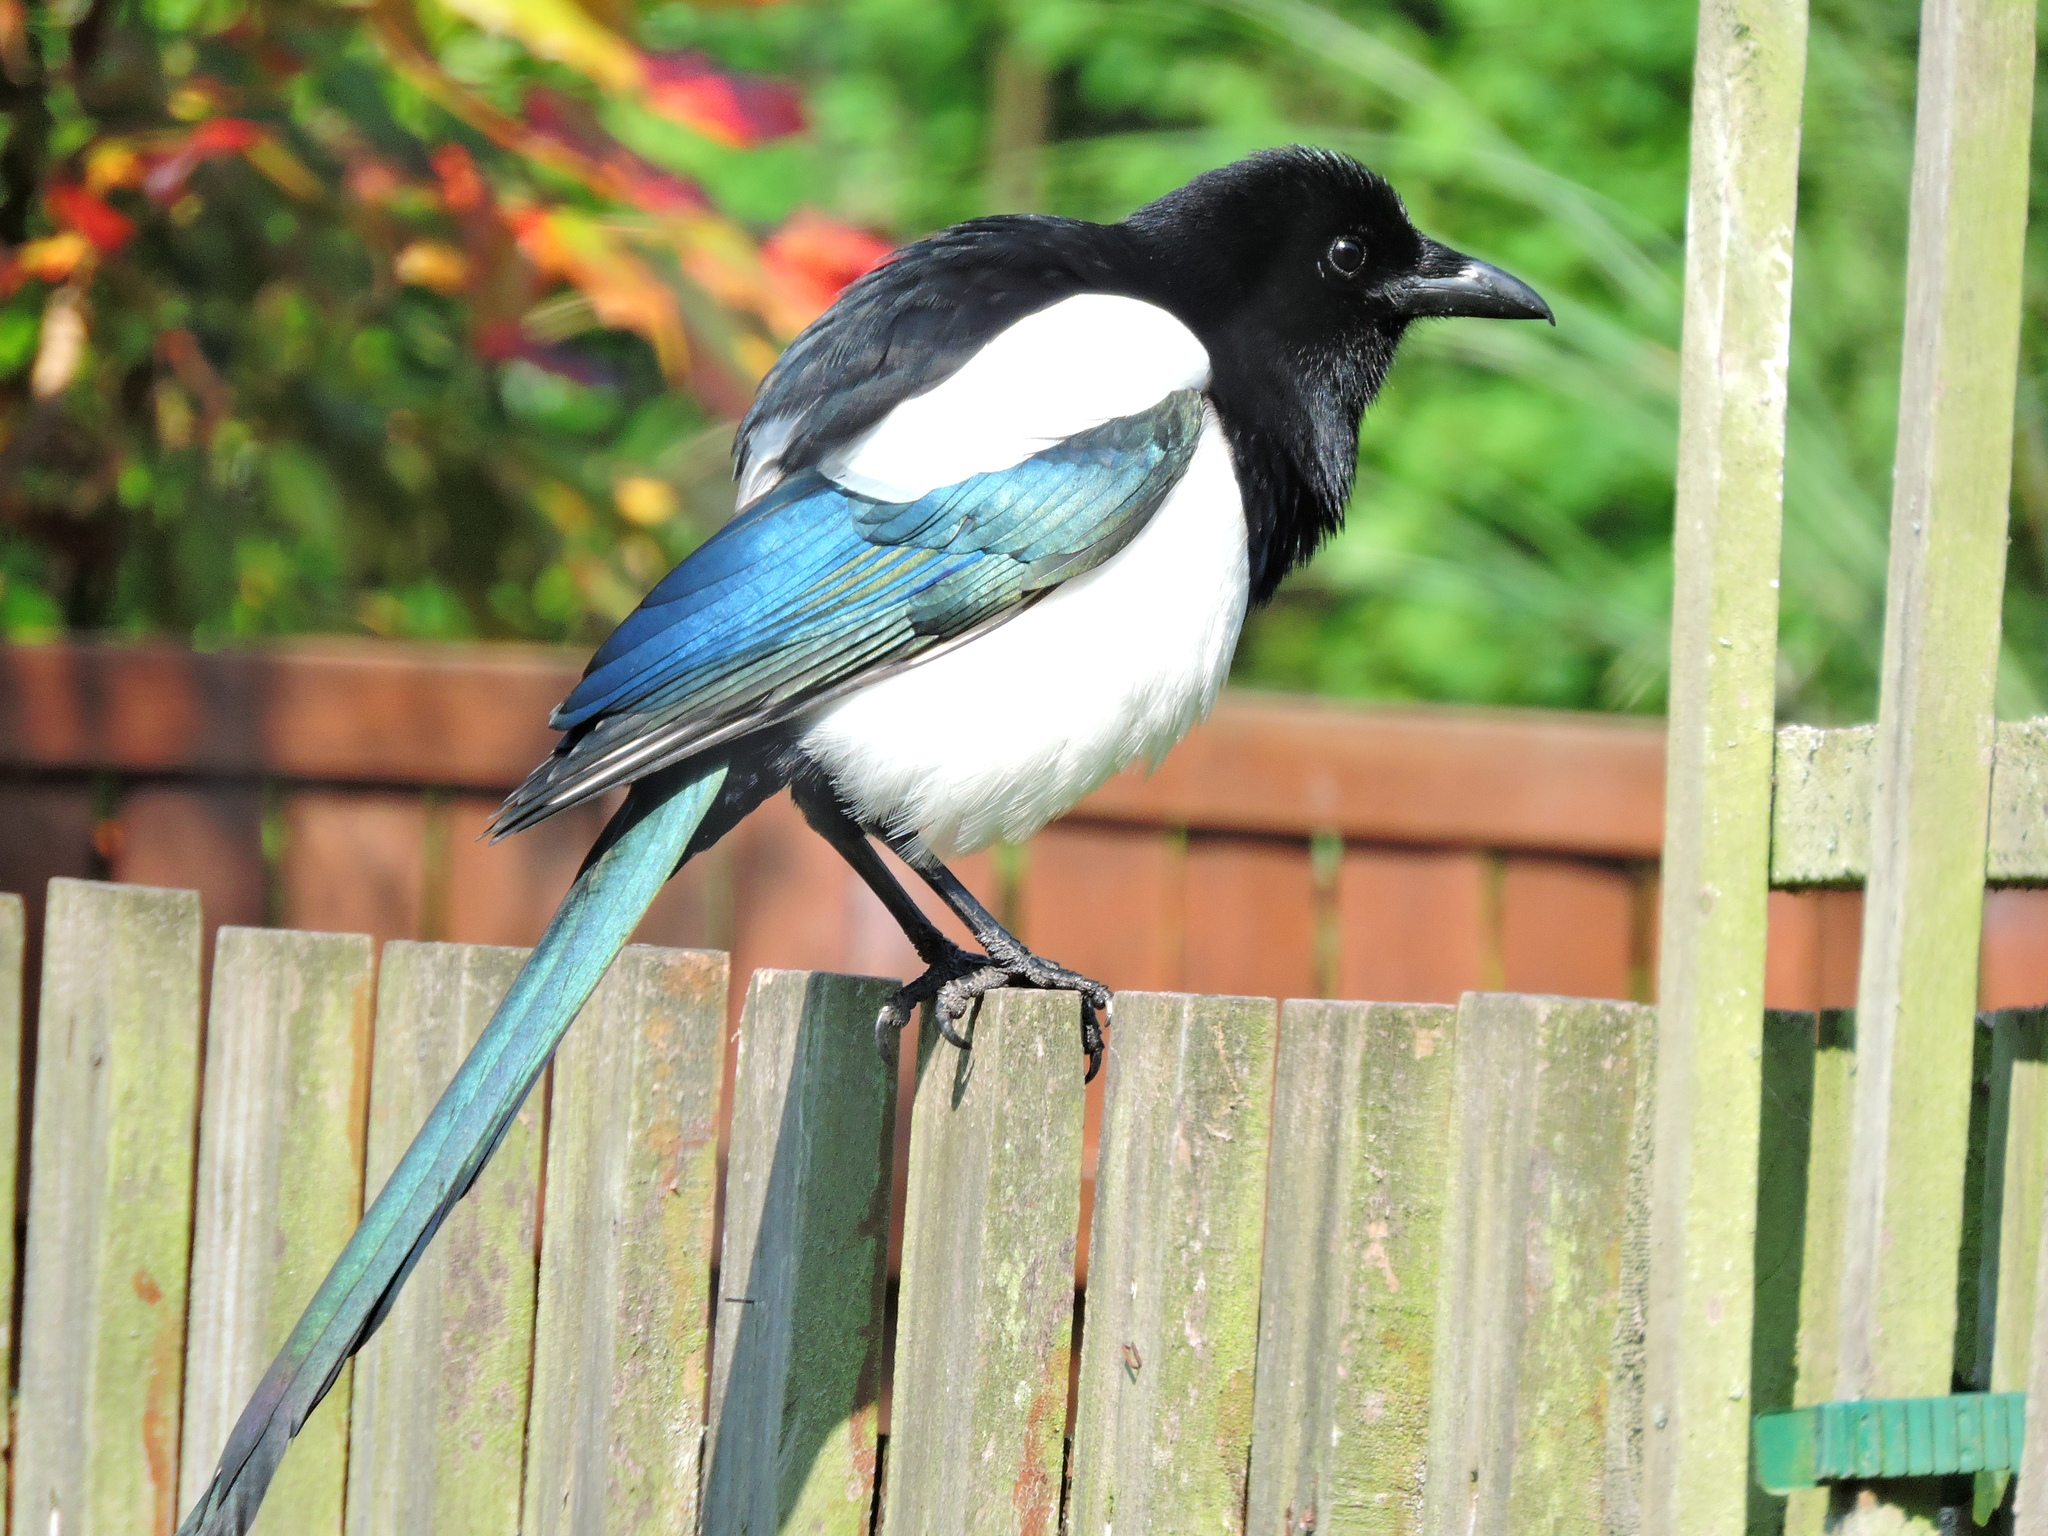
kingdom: Animalia
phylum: Chordata
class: Aves
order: Passeriformes
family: Corvidae
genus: Pica
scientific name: Pica pica
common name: Eurasian magpie
